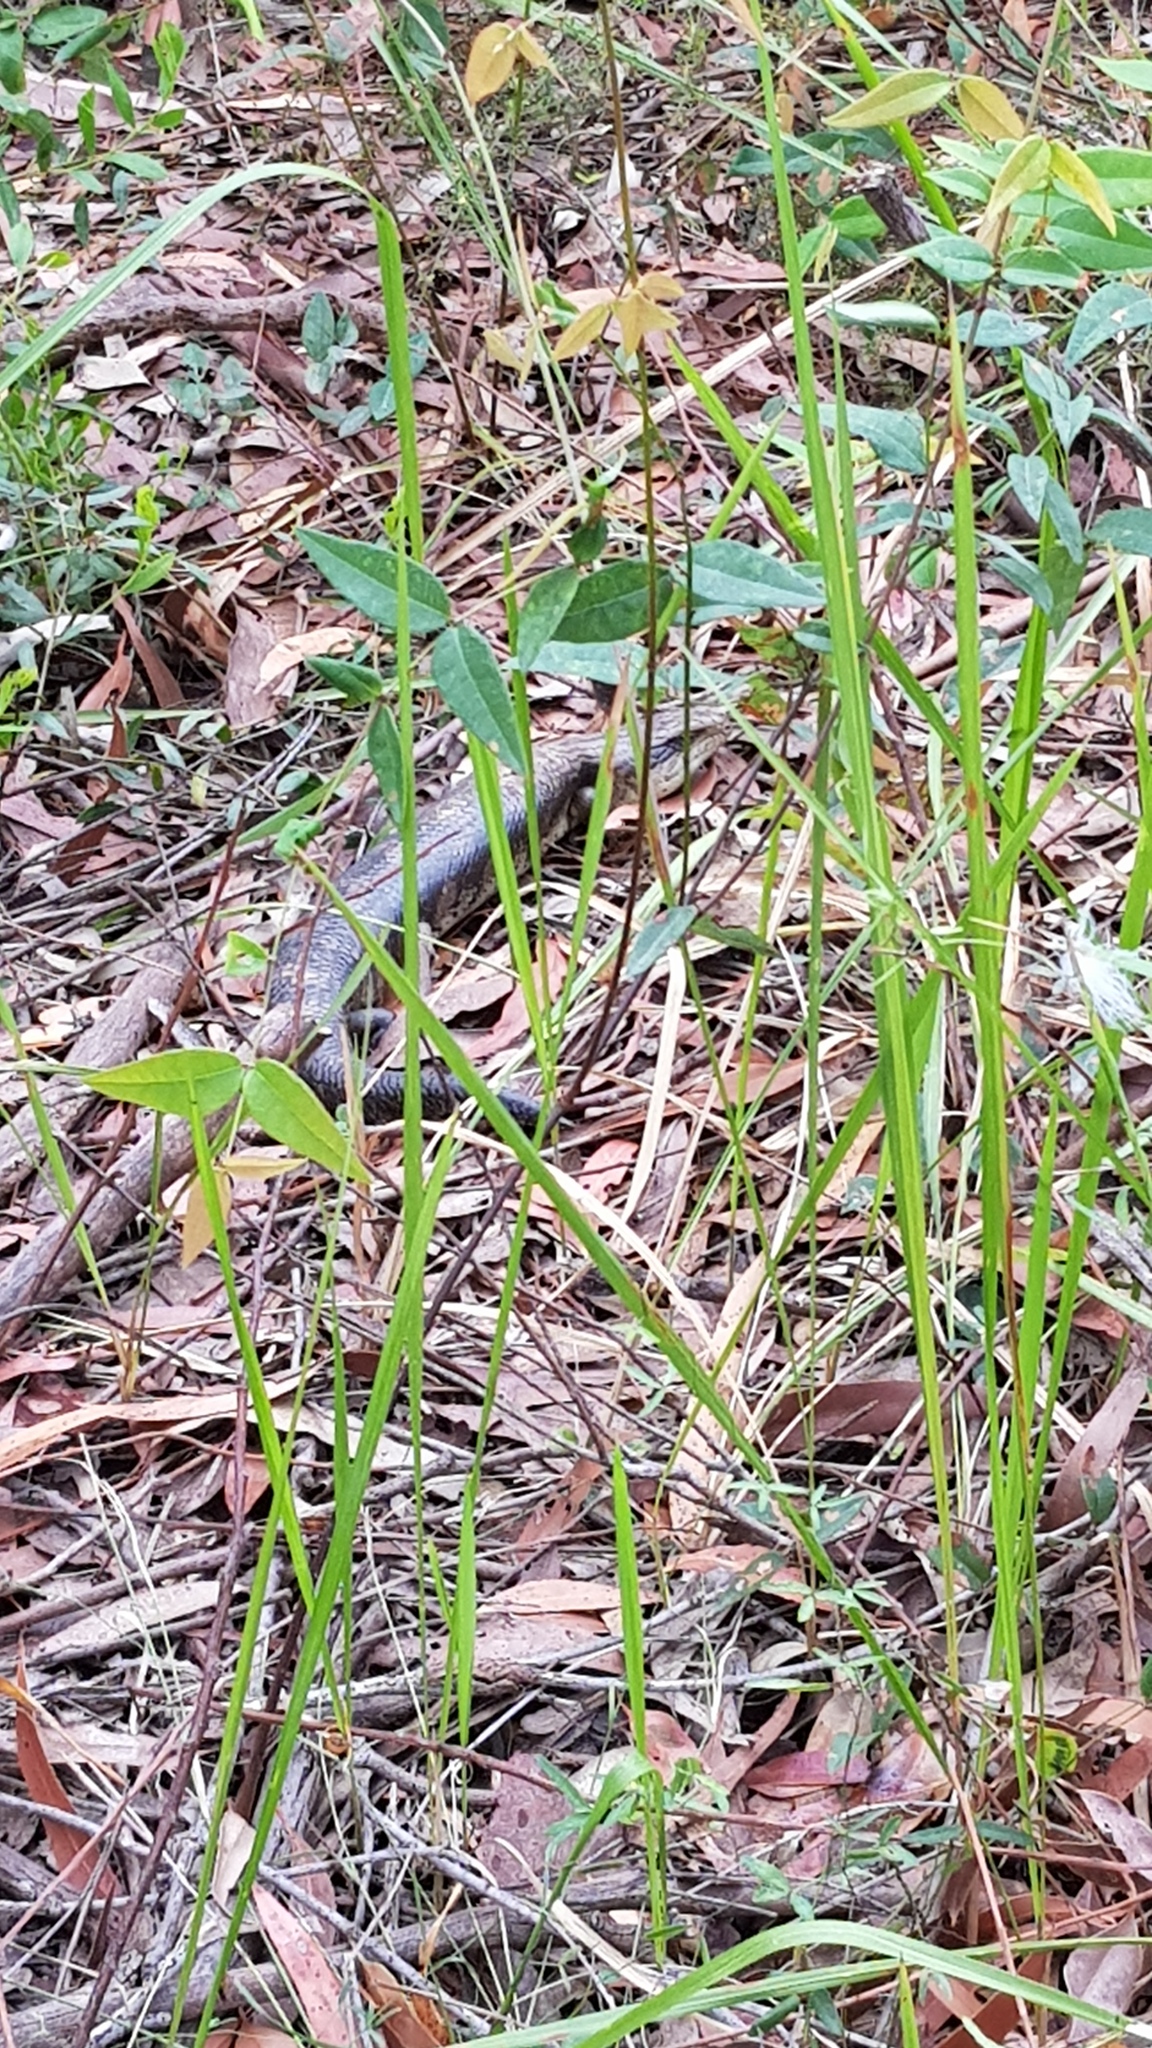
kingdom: Animalia
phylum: Chordata
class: Squamata
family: Scincidae
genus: Tiliqua
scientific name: Tiliqua scincoides
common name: Common bluetongue
